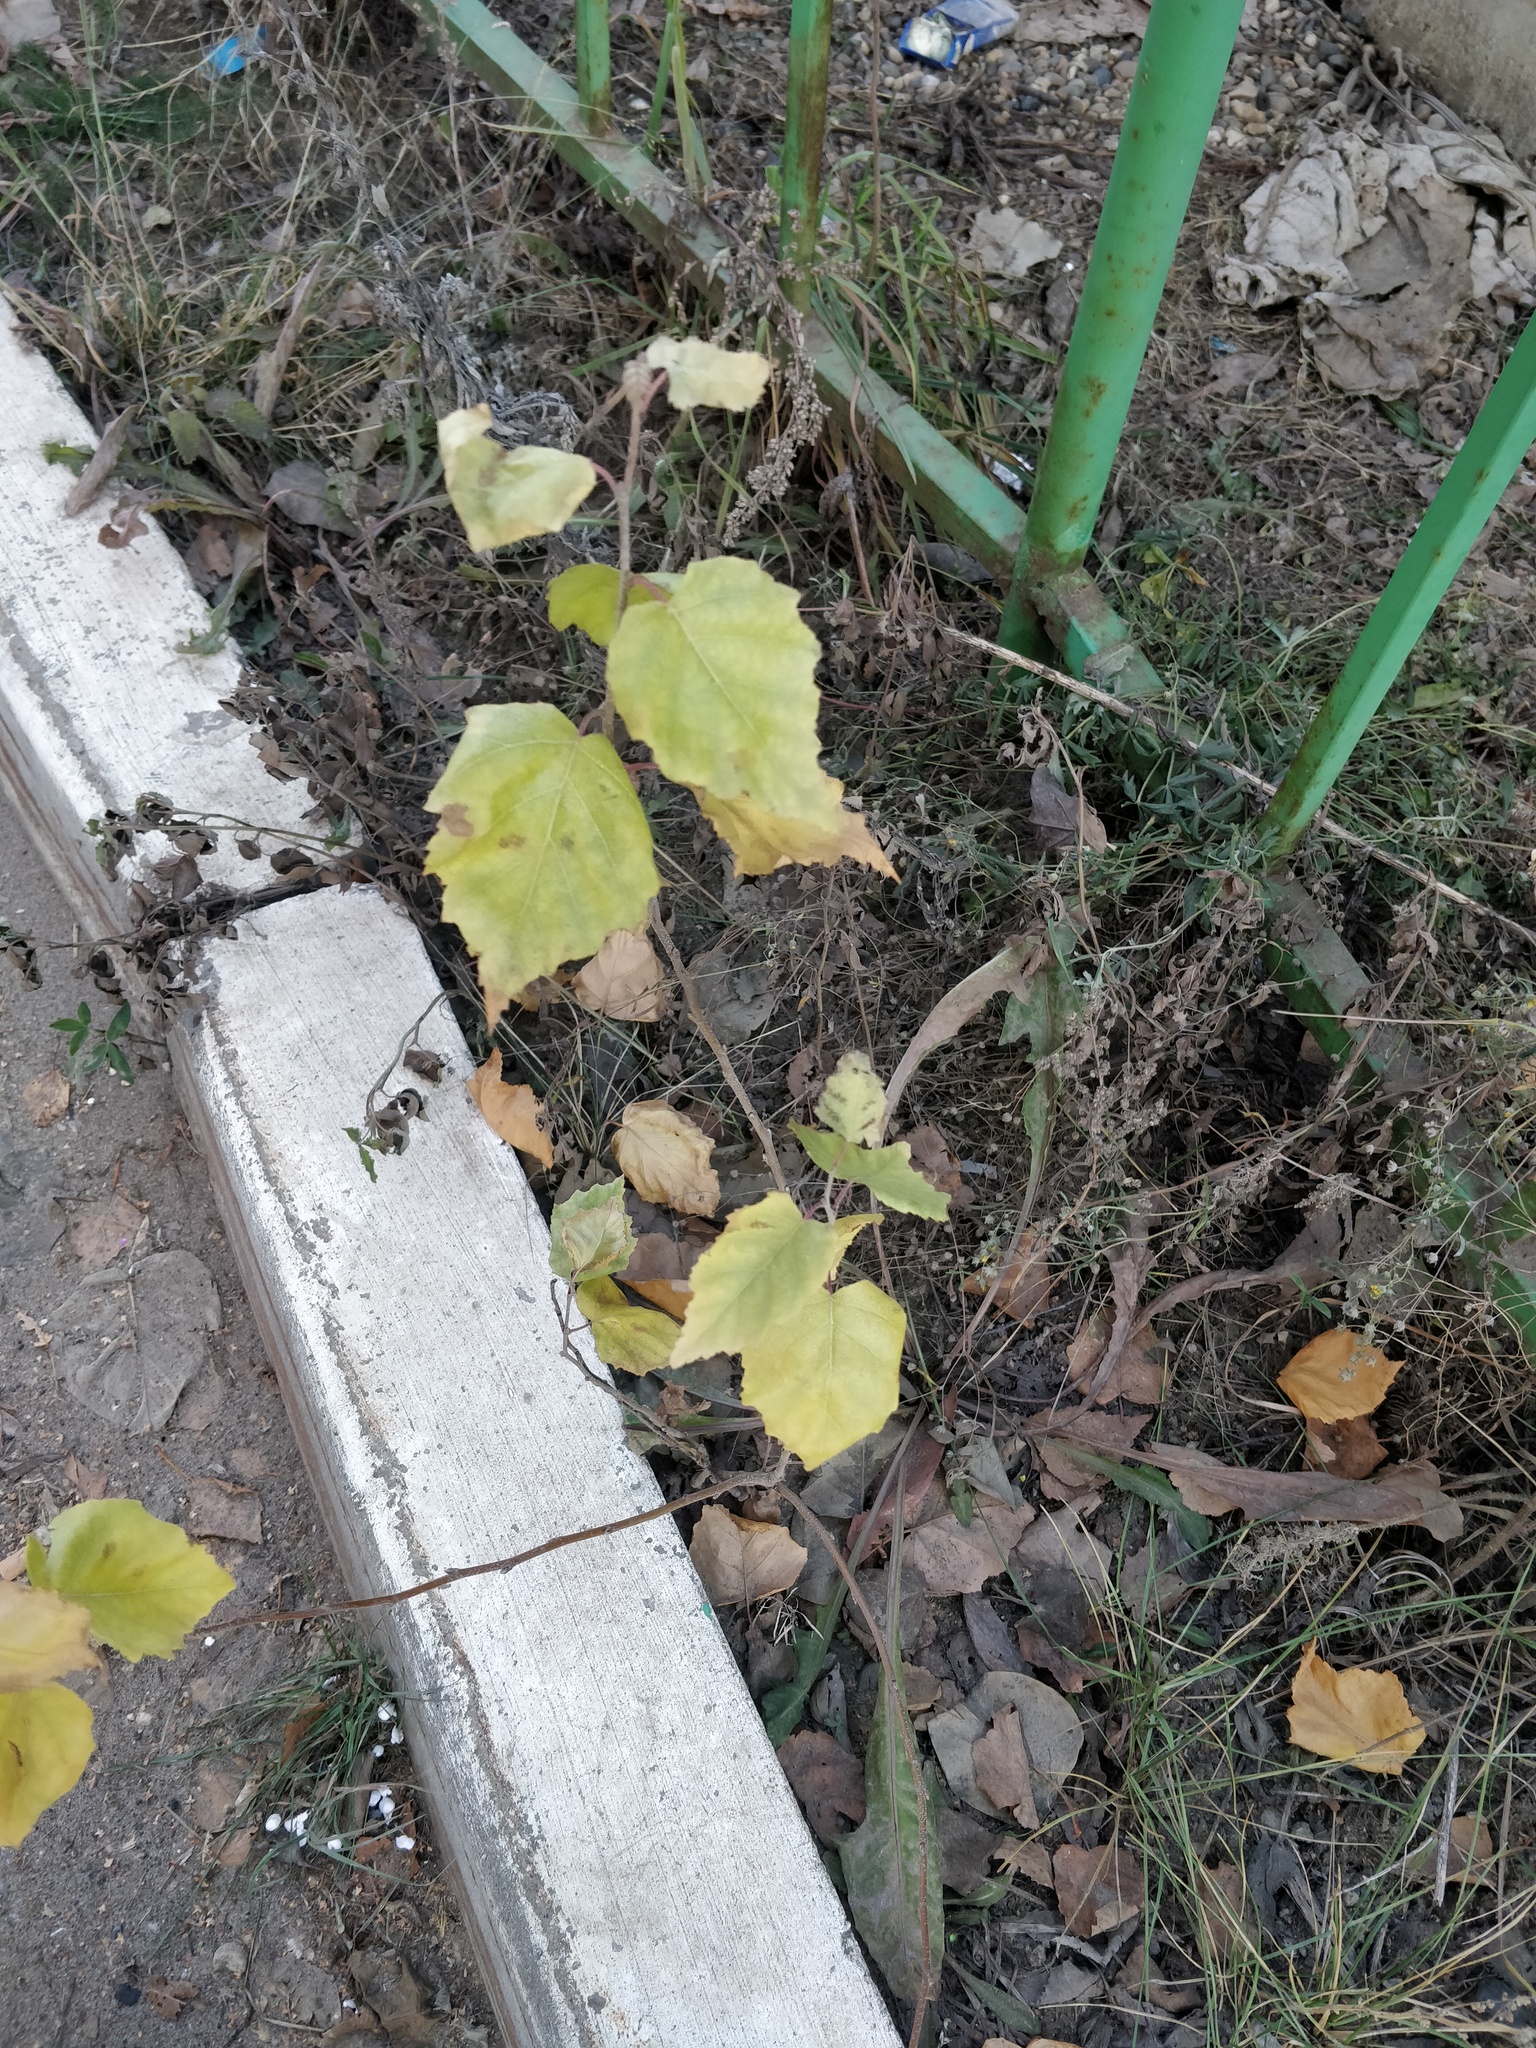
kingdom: Plantae
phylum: Tracheophyta
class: Magnoliopsida
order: Fagales
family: Betulaceae
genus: Betula
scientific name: Betula pendula
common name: Silver birch
